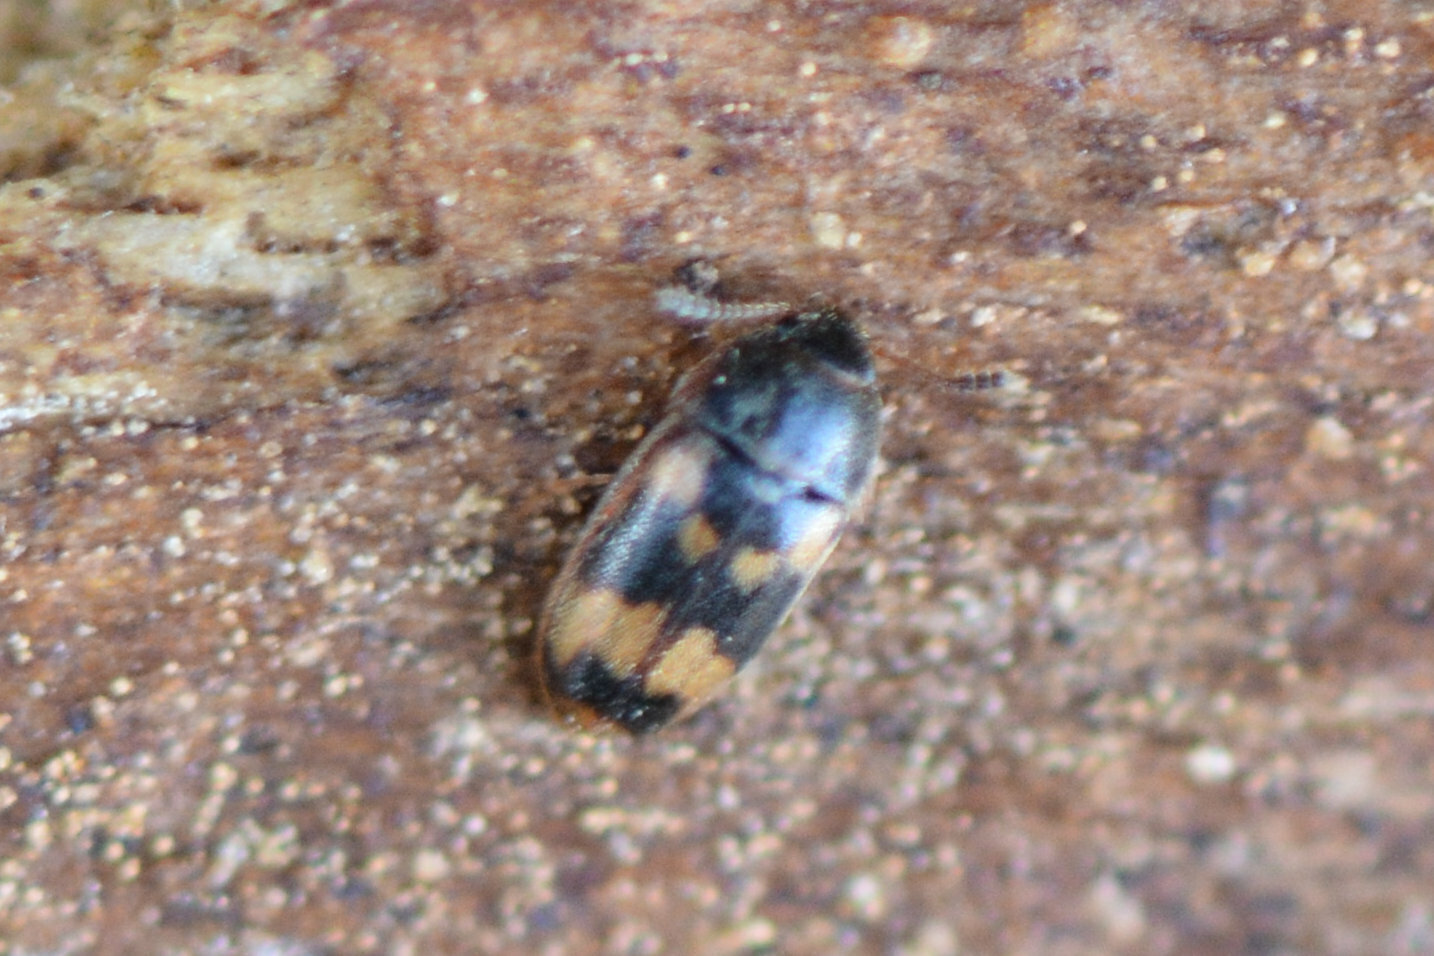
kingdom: Animalia
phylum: Arthropoda
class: Insecta
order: Coleoptera
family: Mycetophagidae
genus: Litargus
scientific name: Litargus connexus
